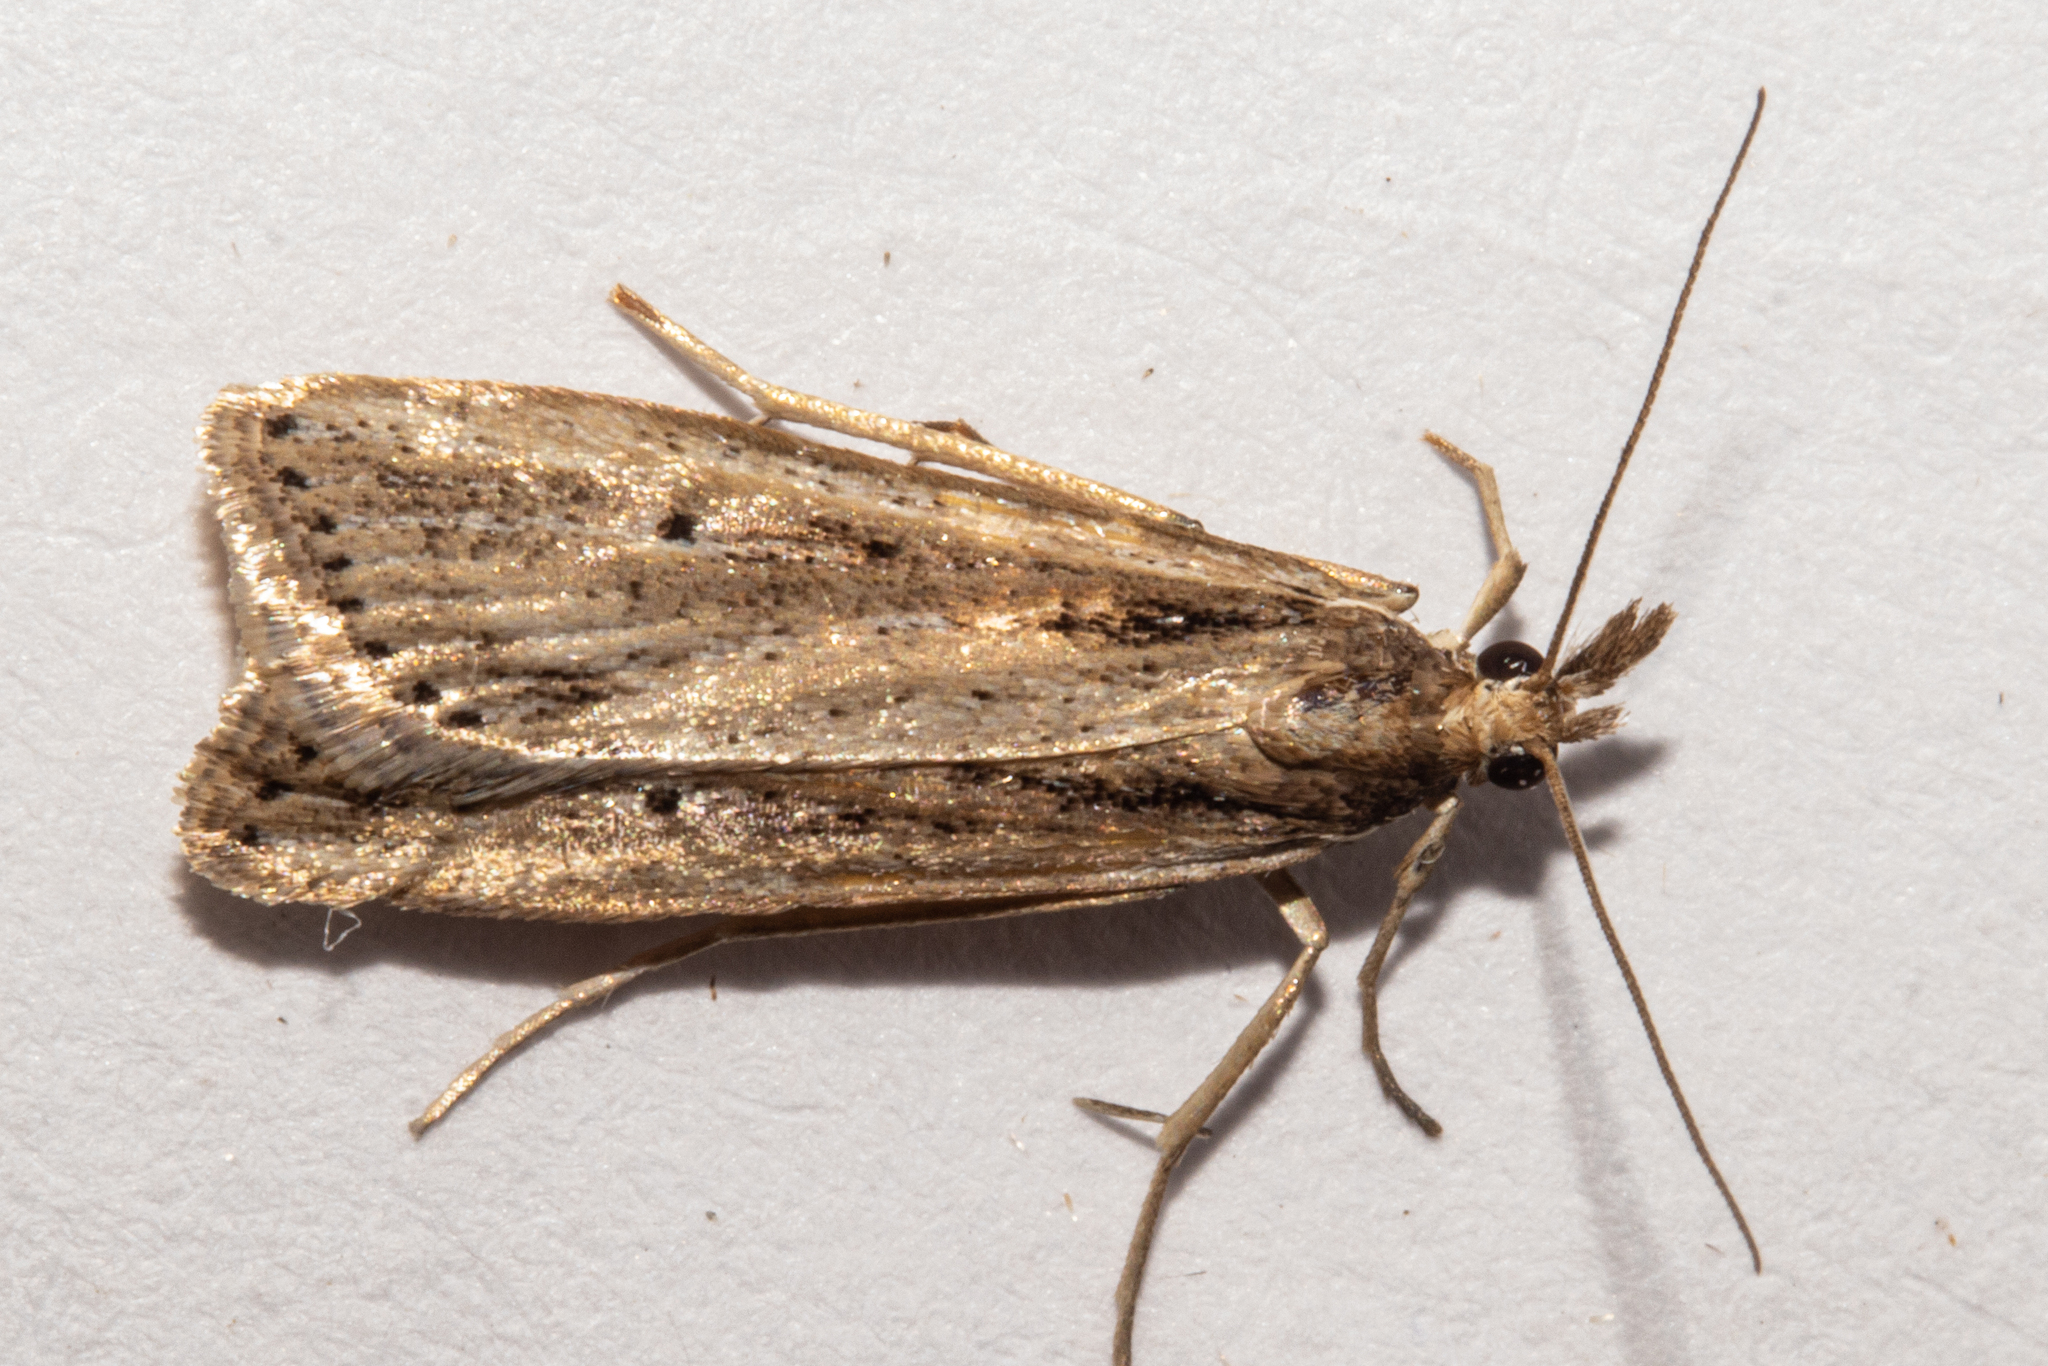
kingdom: Animalia
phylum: Arthropoda
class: Insecta
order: Lepidoptera
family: Crambidae
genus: Eudonia
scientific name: Eudonia sabulosella
